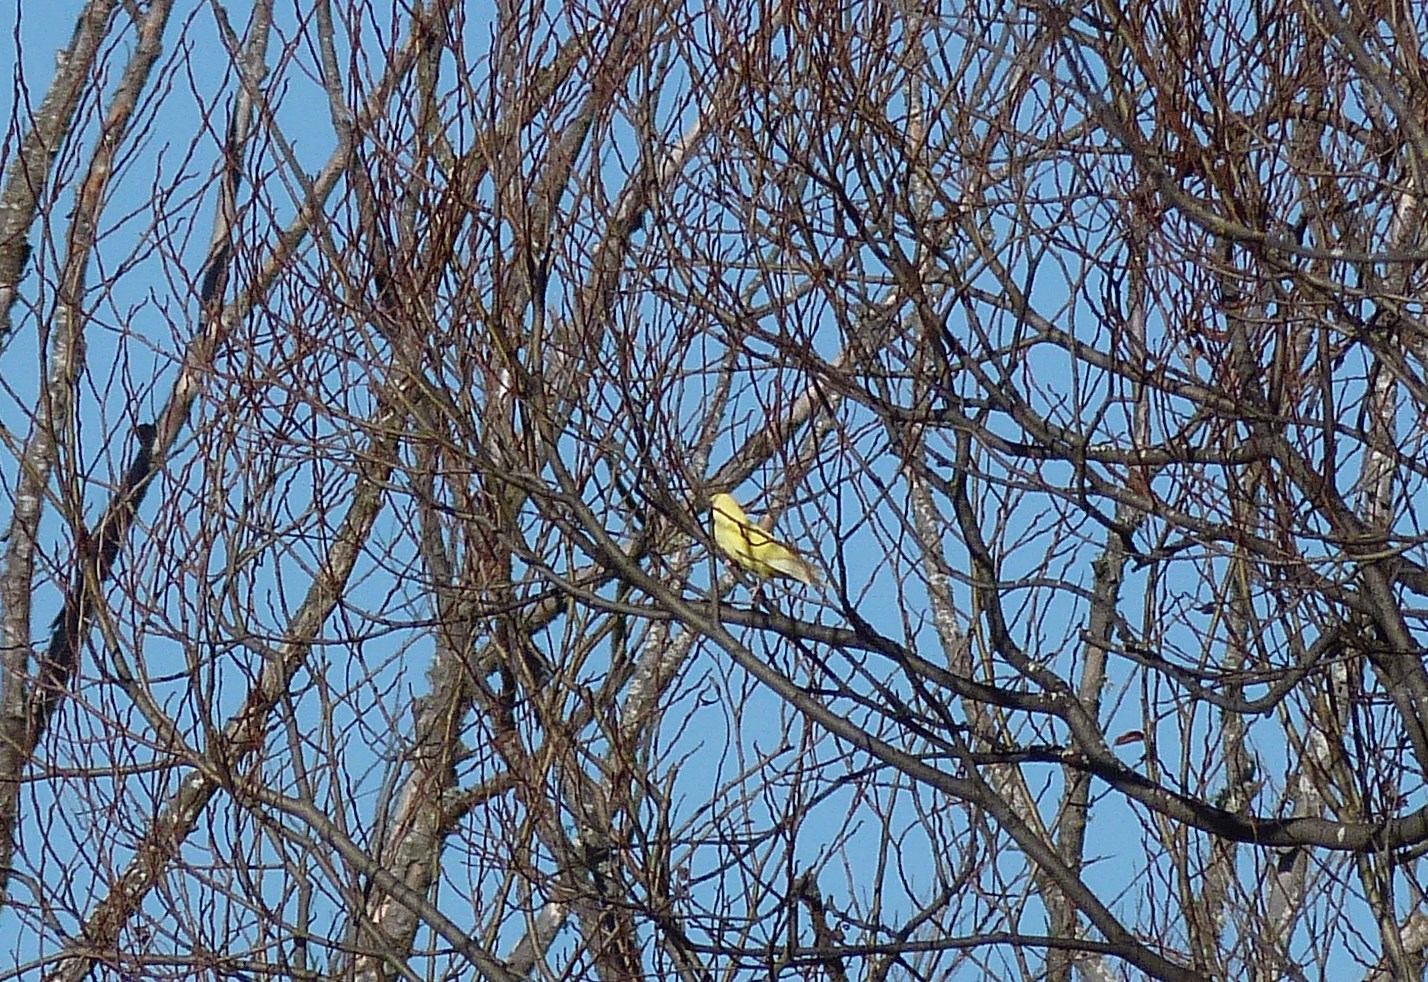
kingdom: Animalia
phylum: Chordata
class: Aves
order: Passeriformes
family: Fringillidae
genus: Serinus
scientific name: Serinus canaria
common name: Atlantic canary
